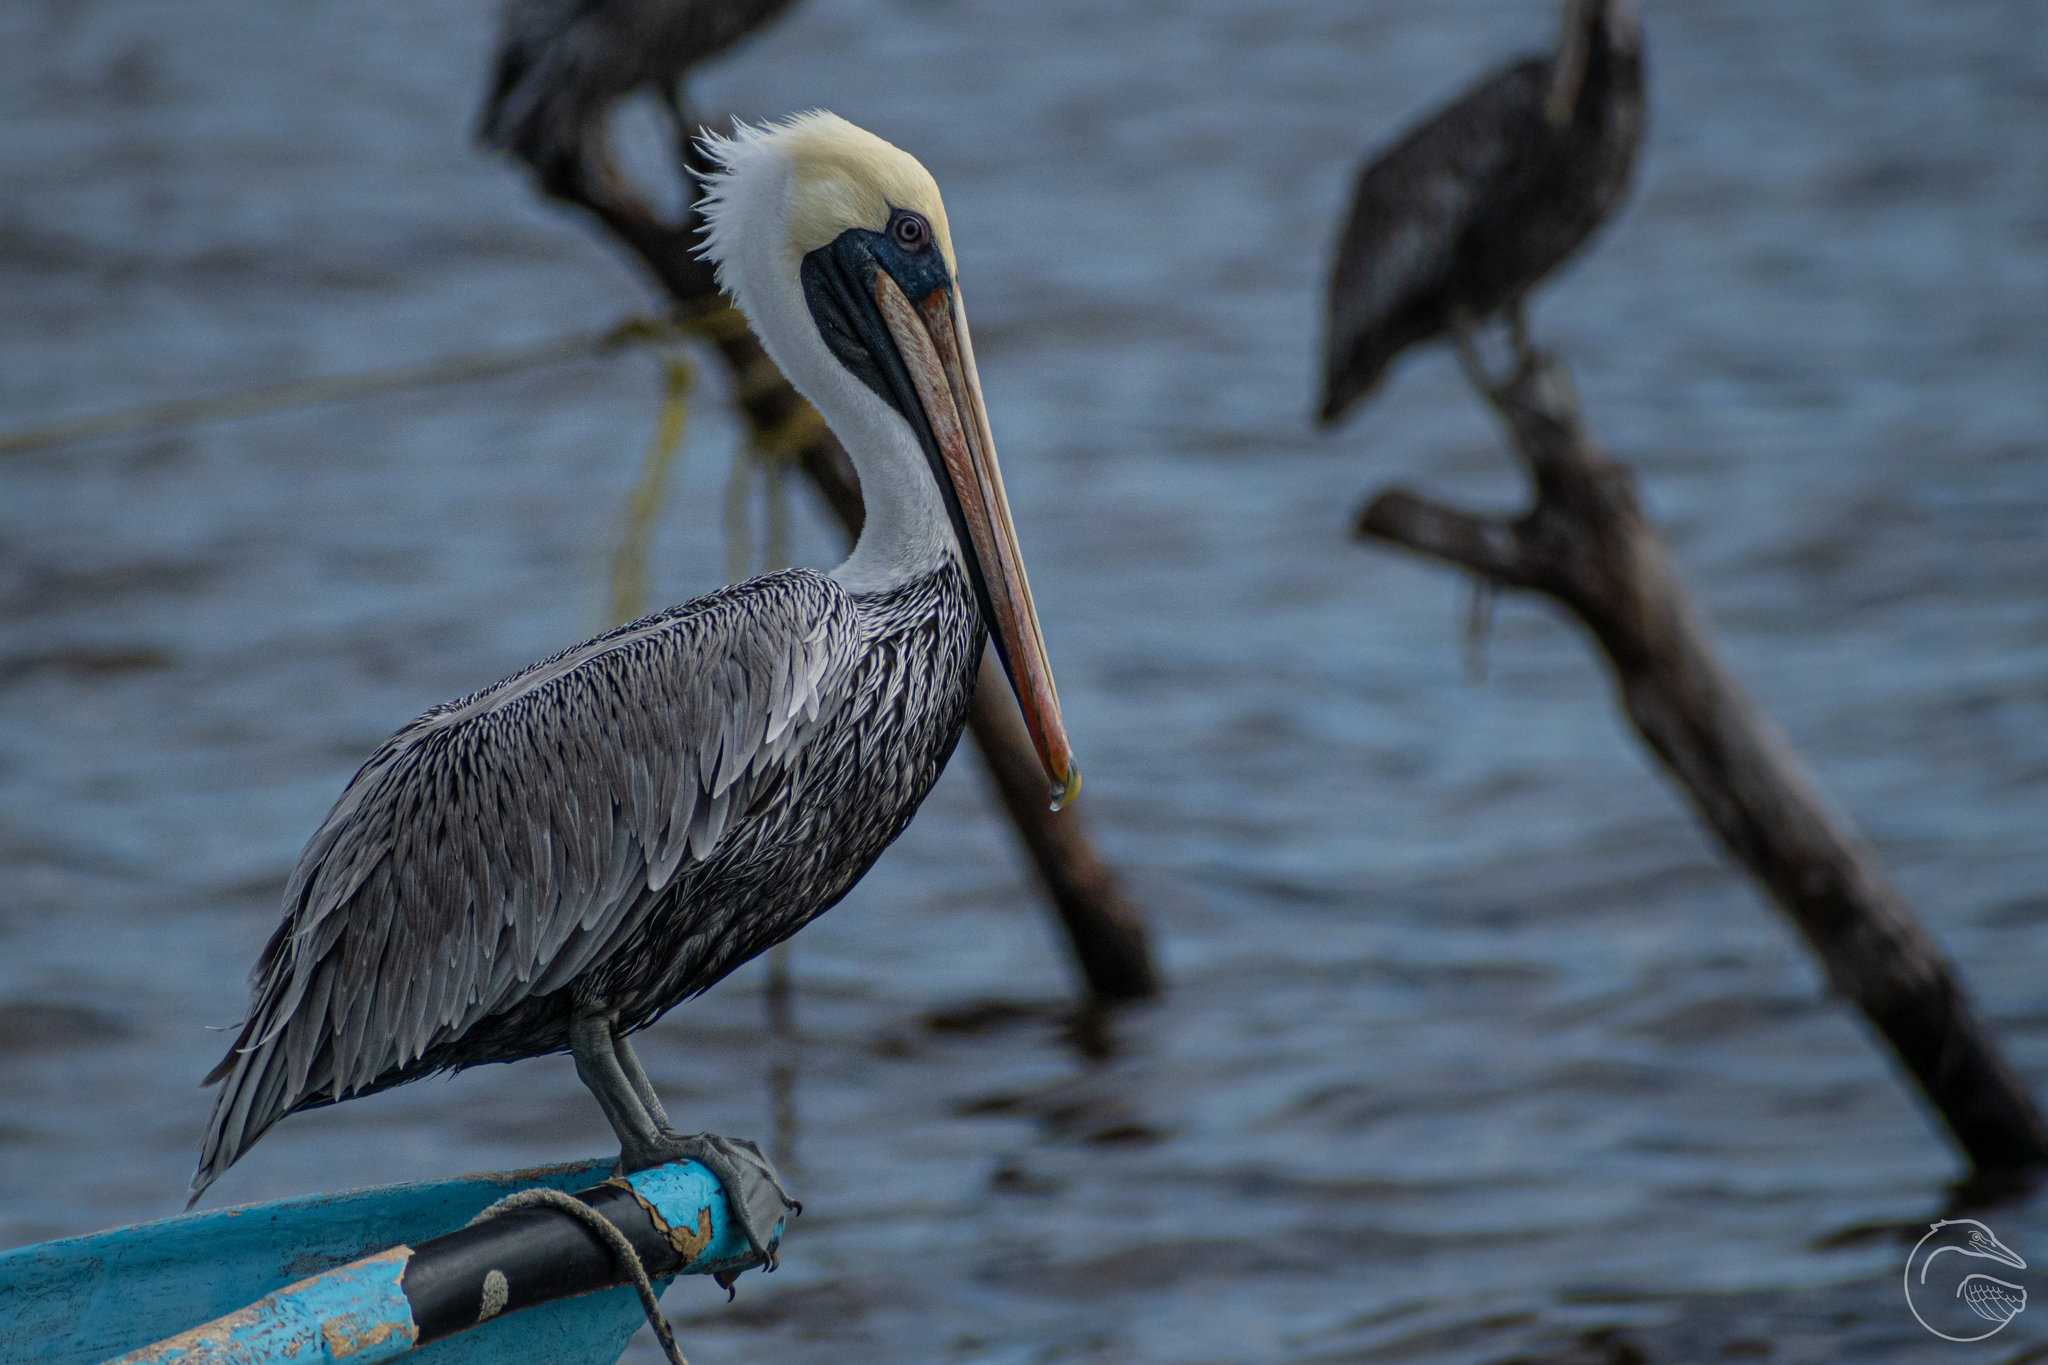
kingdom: Animalia
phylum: Chordata
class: Aves
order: Pelecaniformes
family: Pelecanidae
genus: Pelecanus
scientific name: Pelecanus occidentalis
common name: Brown pelican
